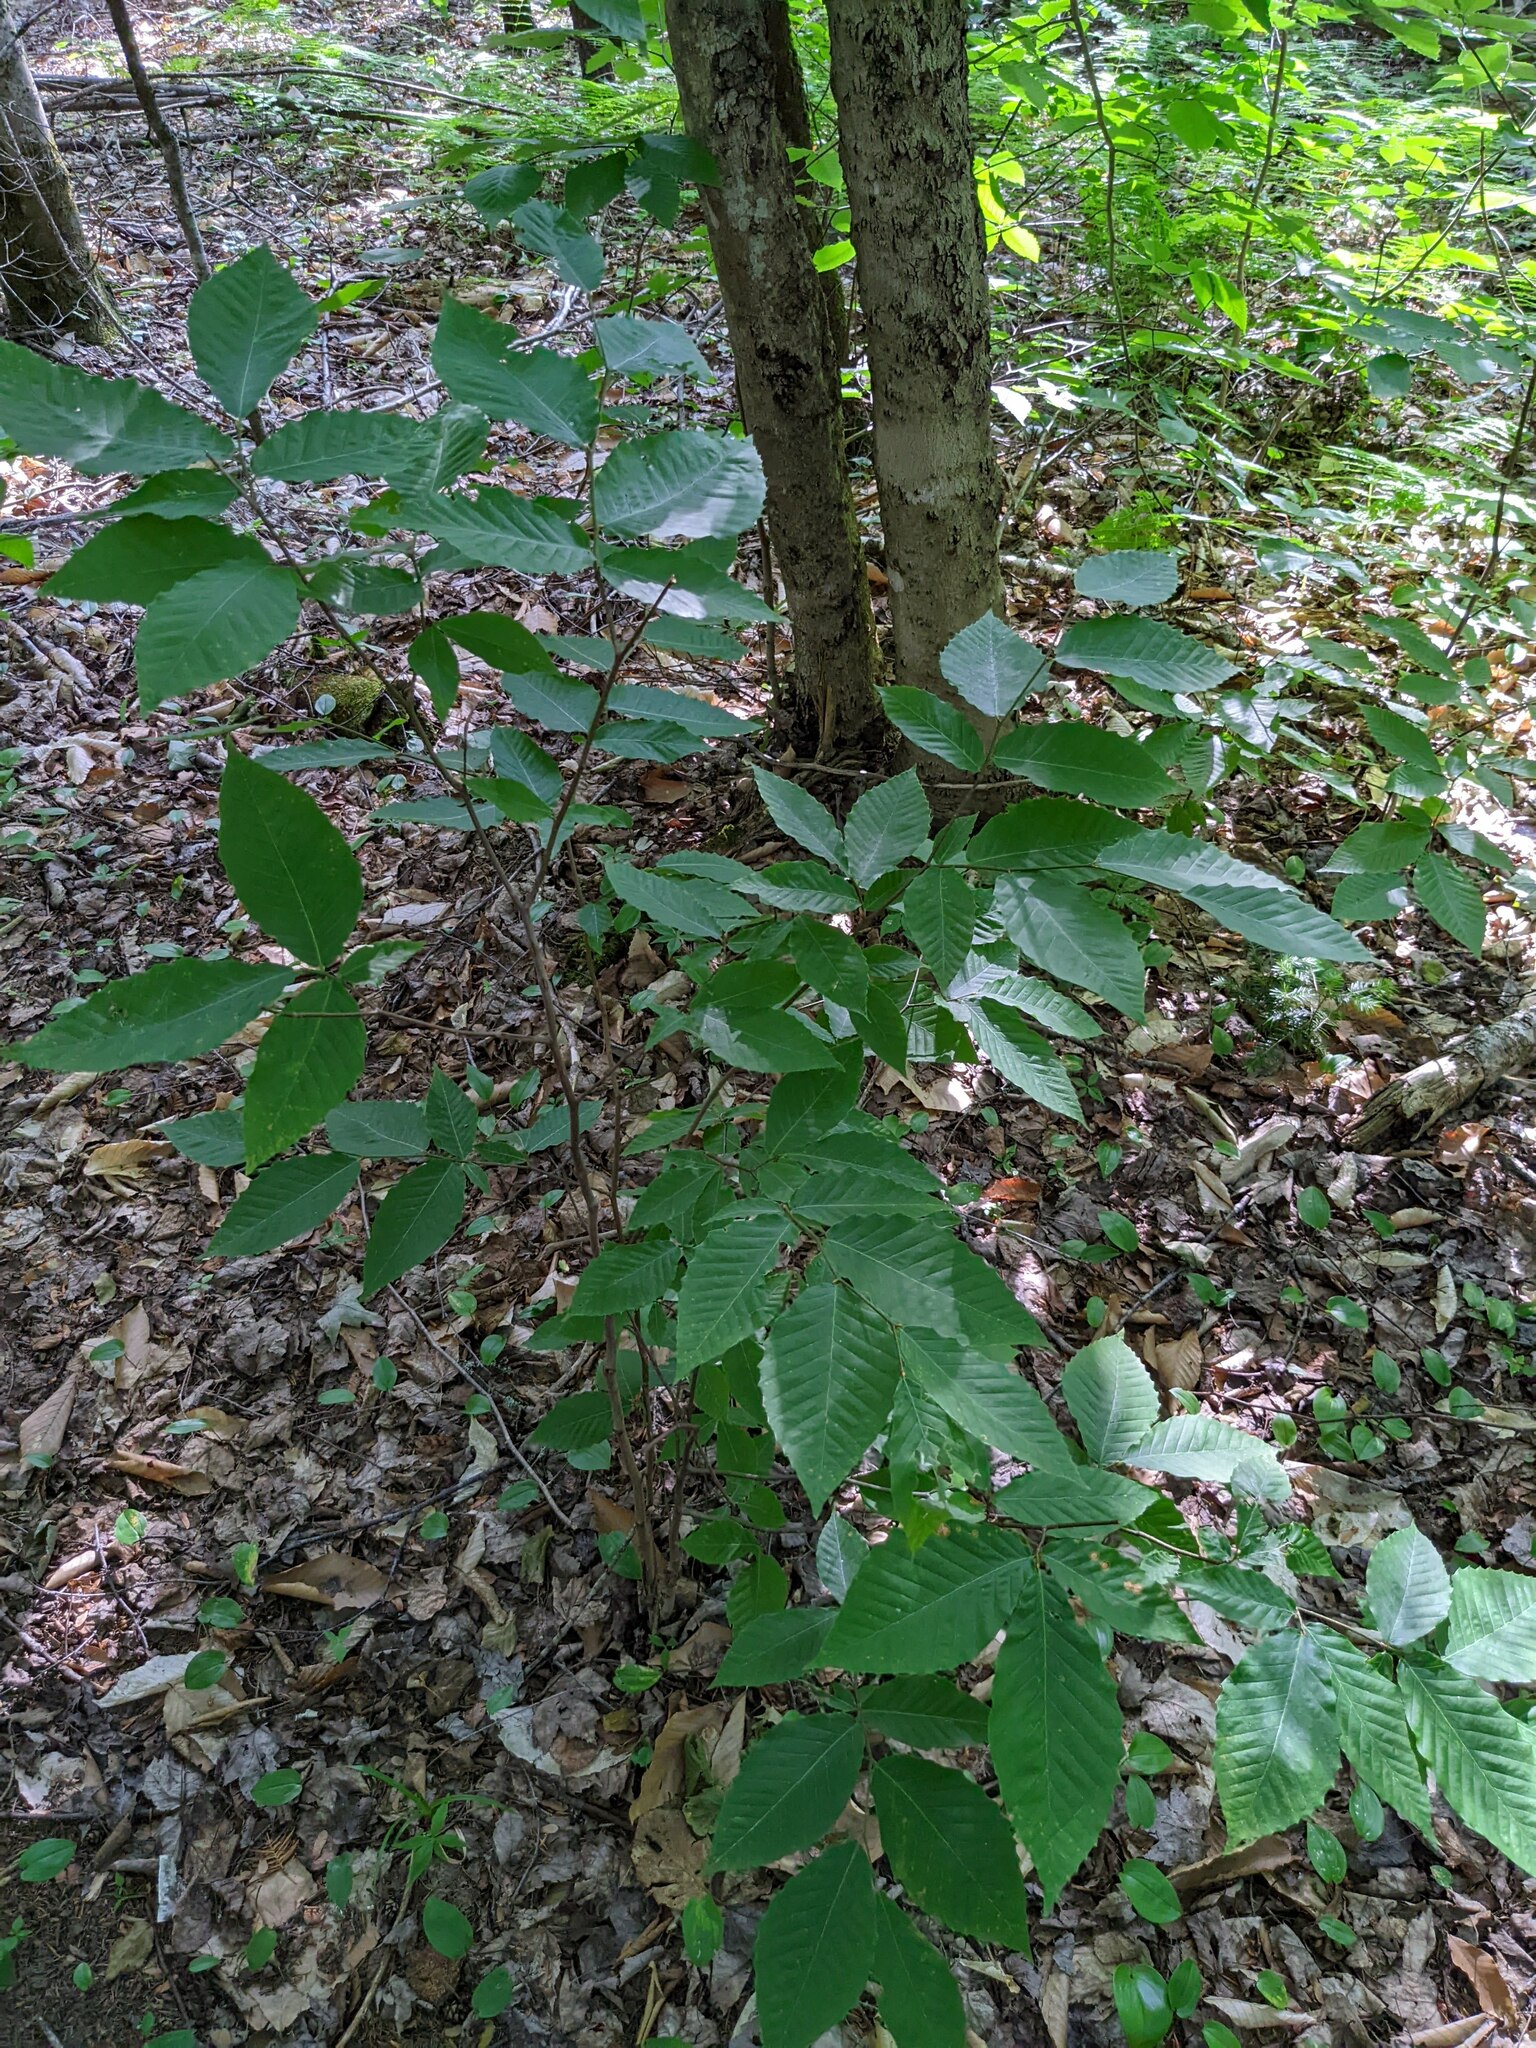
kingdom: Plantae
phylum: Tracheophyta
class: Magnoliopsida
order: Fagales
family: Fagaceae
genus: Fagus
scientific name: Fagus grandifolia
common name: American beech
